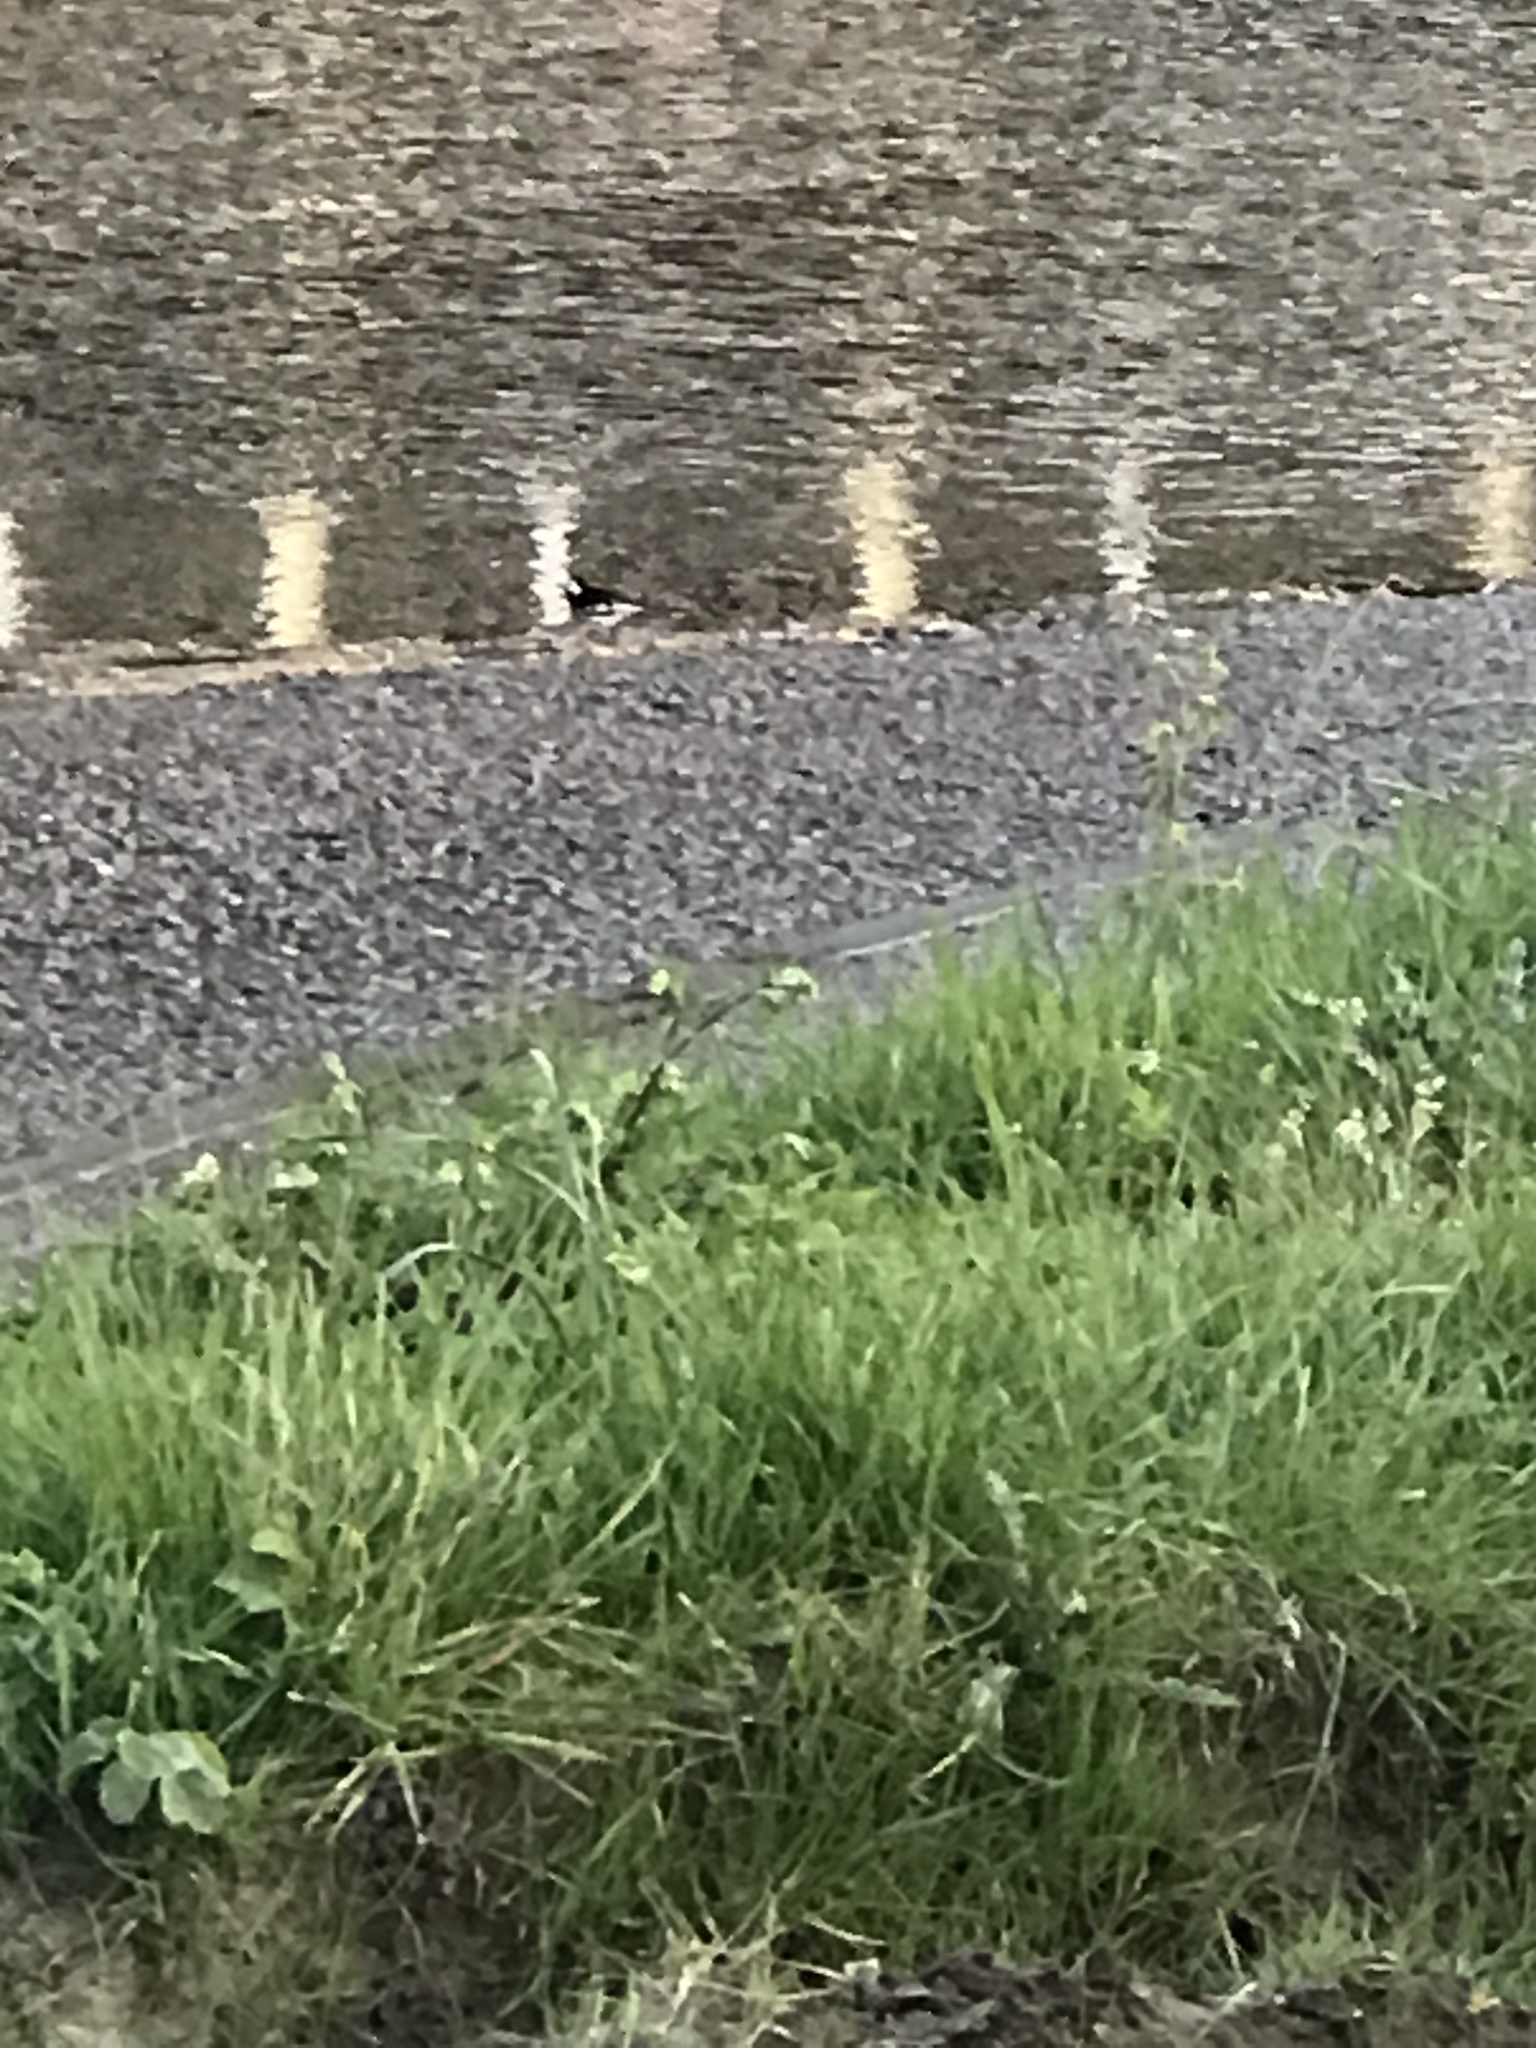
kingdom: Animalia
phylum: Chordata
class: Aves
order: Passeriformes
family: Motacillidae
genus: Motacilla
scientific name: Motacilla alba
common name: White wagtail
